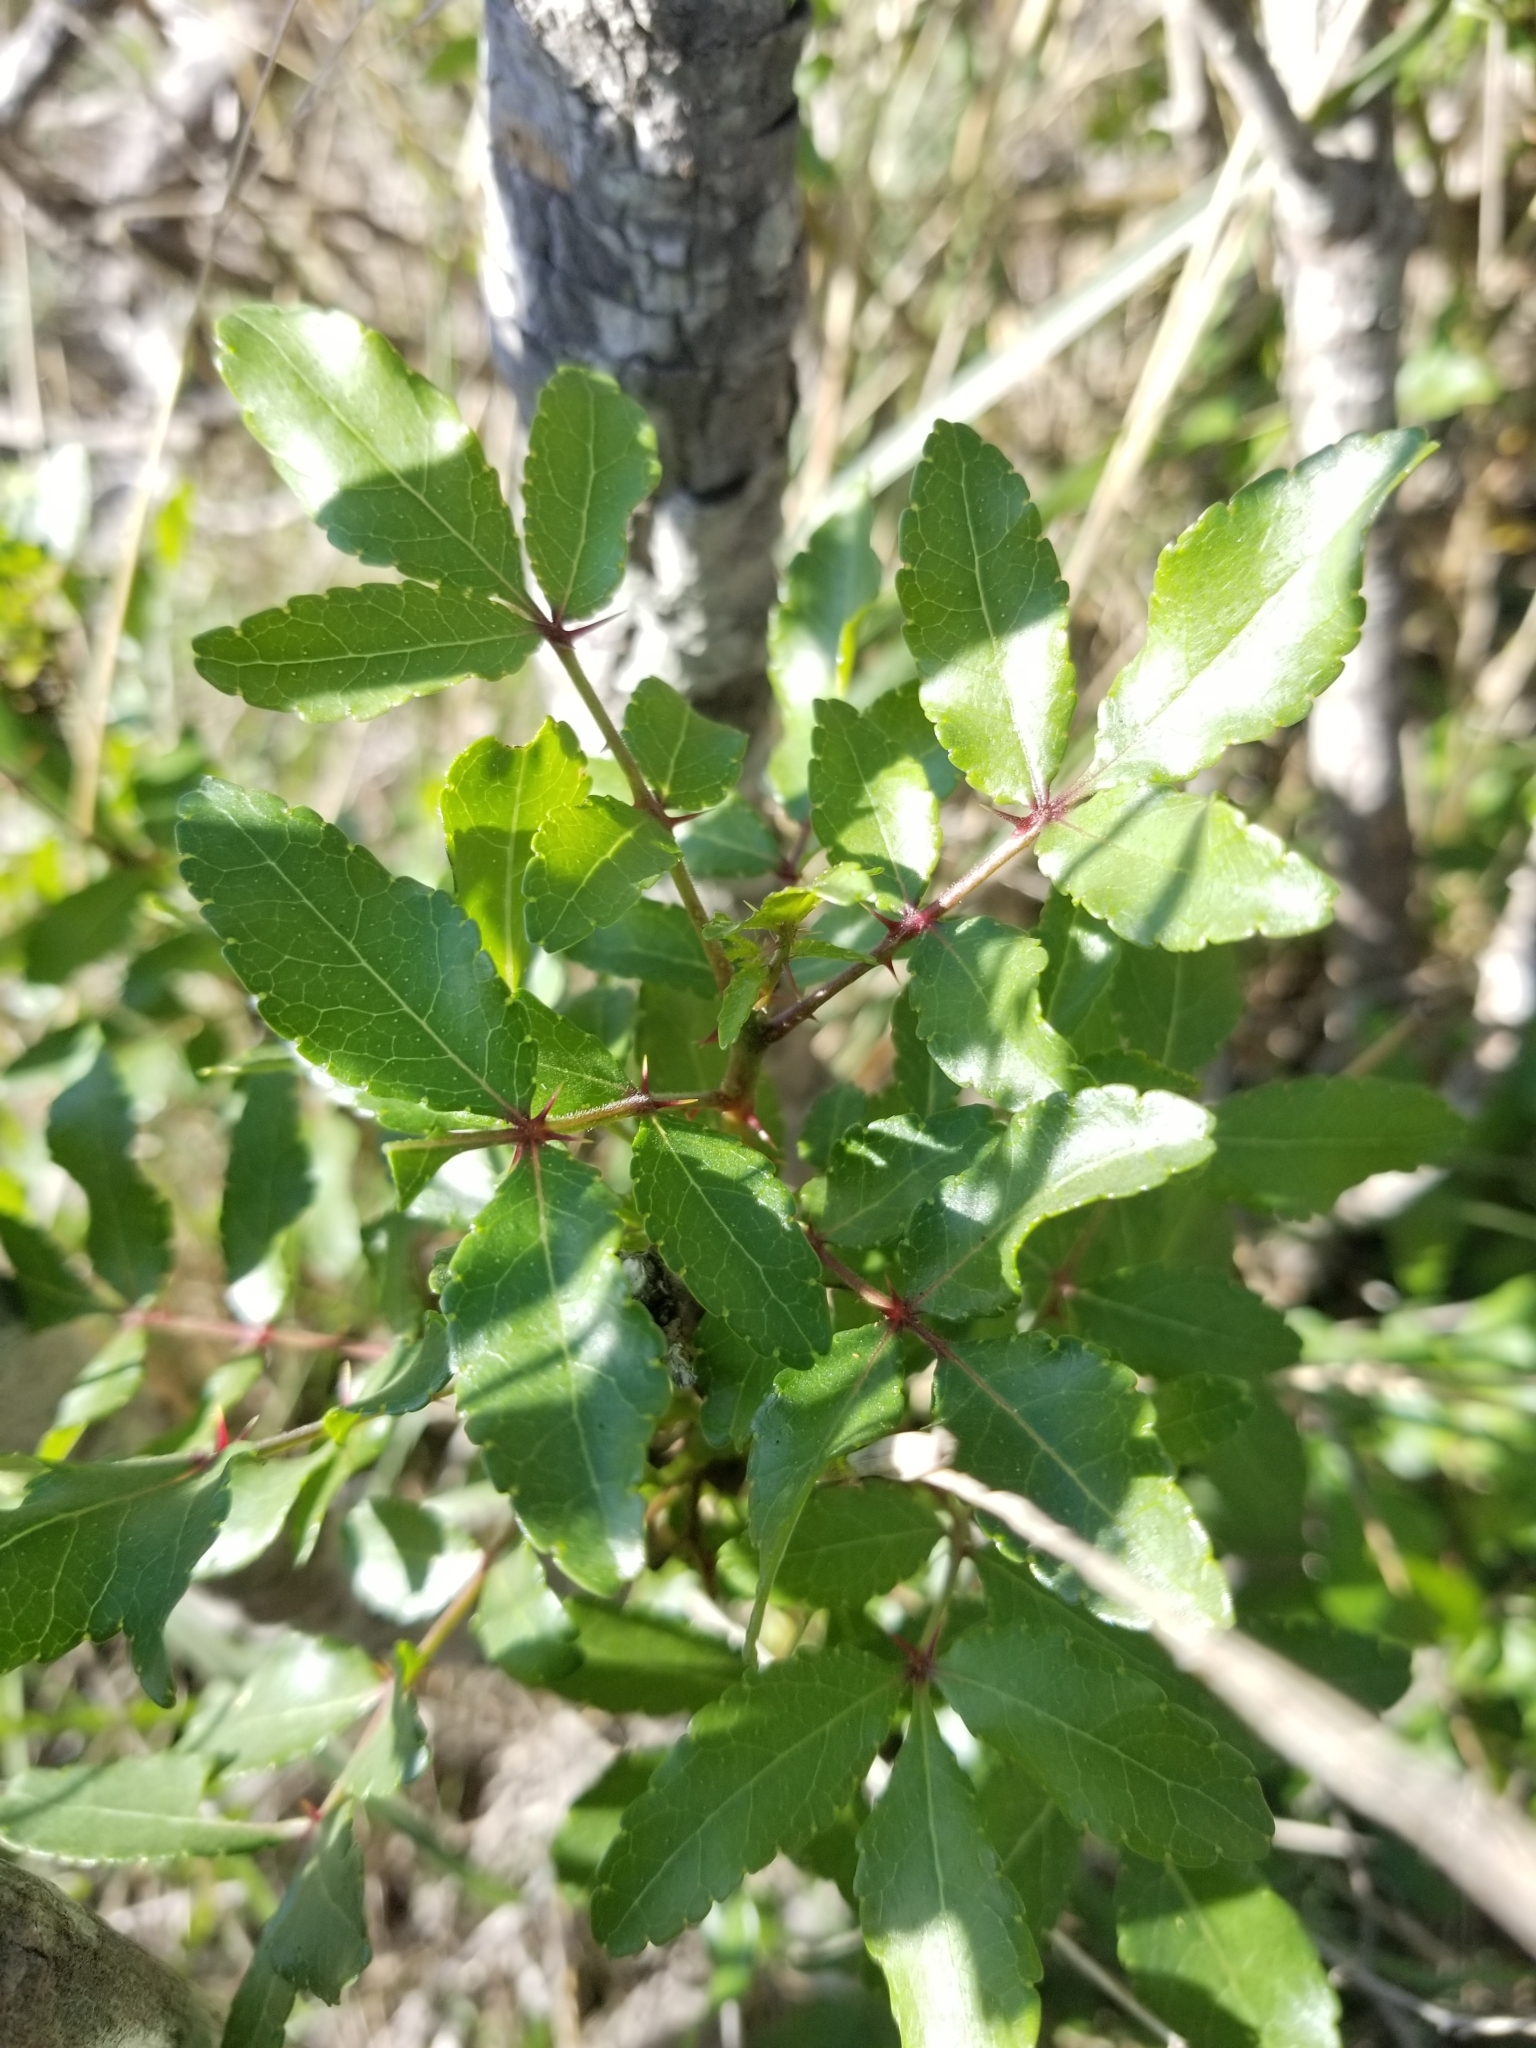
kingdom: Plantae
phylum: Tracheophyta
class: Magnoliopsida
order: Sapindales
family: Rutaceae
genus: Zanthoxylum
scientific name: Zanthoxylum clava-herculis
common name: Hercules'-club
